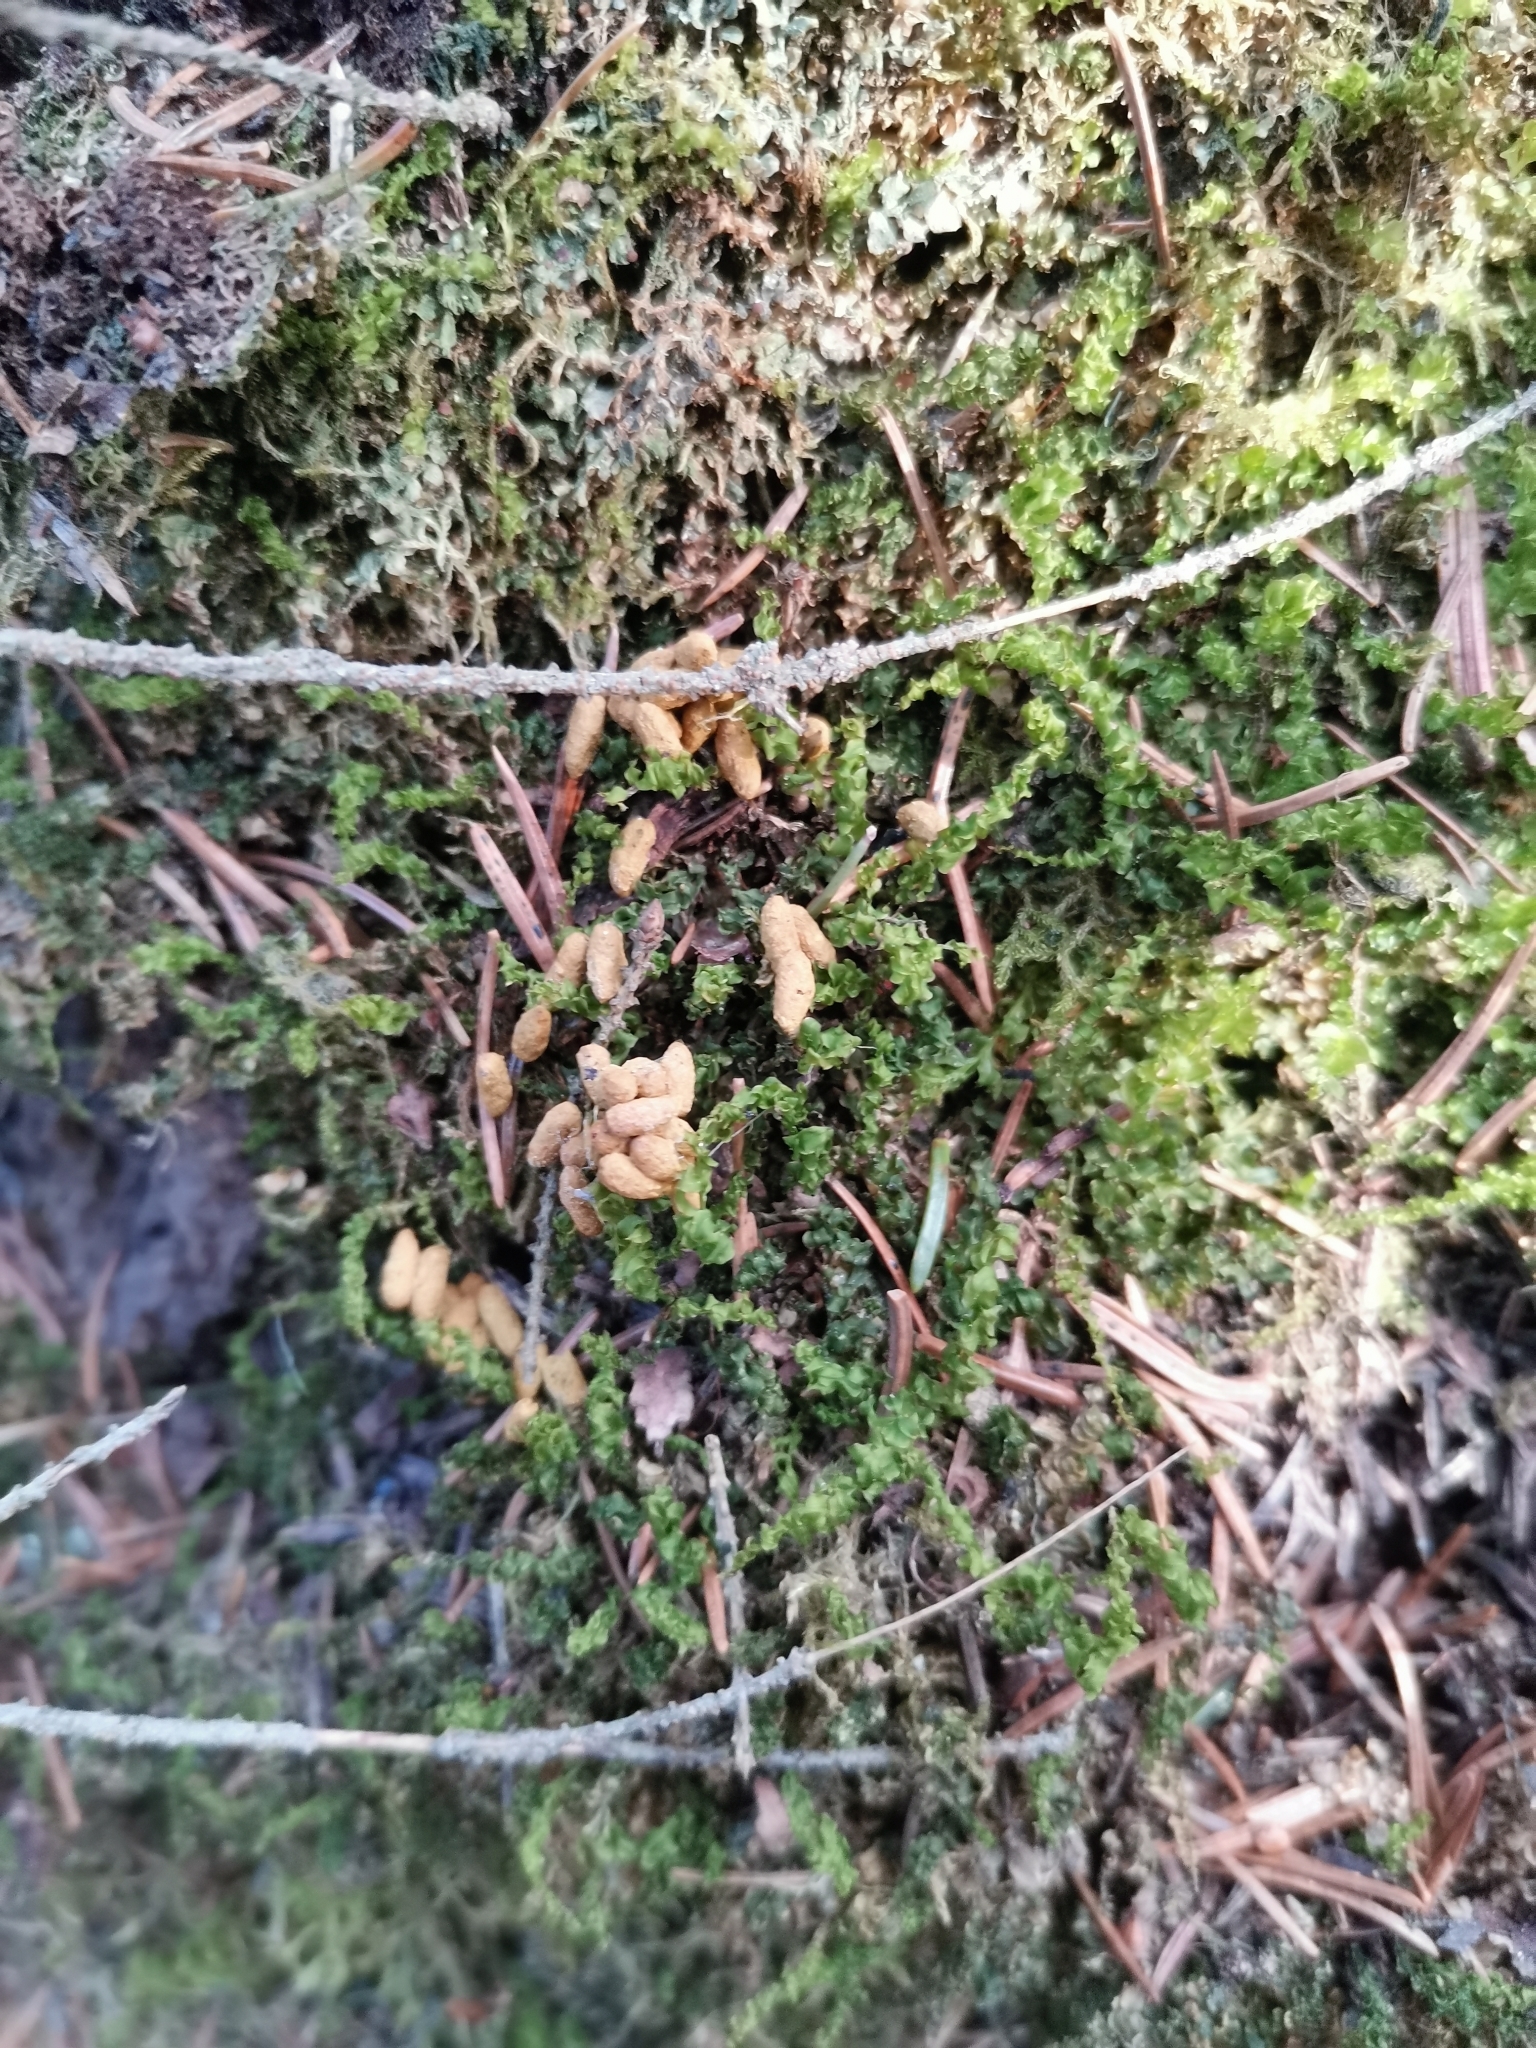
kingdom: Animalia
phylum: Chordata
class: Mammalia
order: Rodentia
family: Sciuridae
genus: Pteromys
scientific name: Pteromys volans
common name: Siberian flying squirrel
